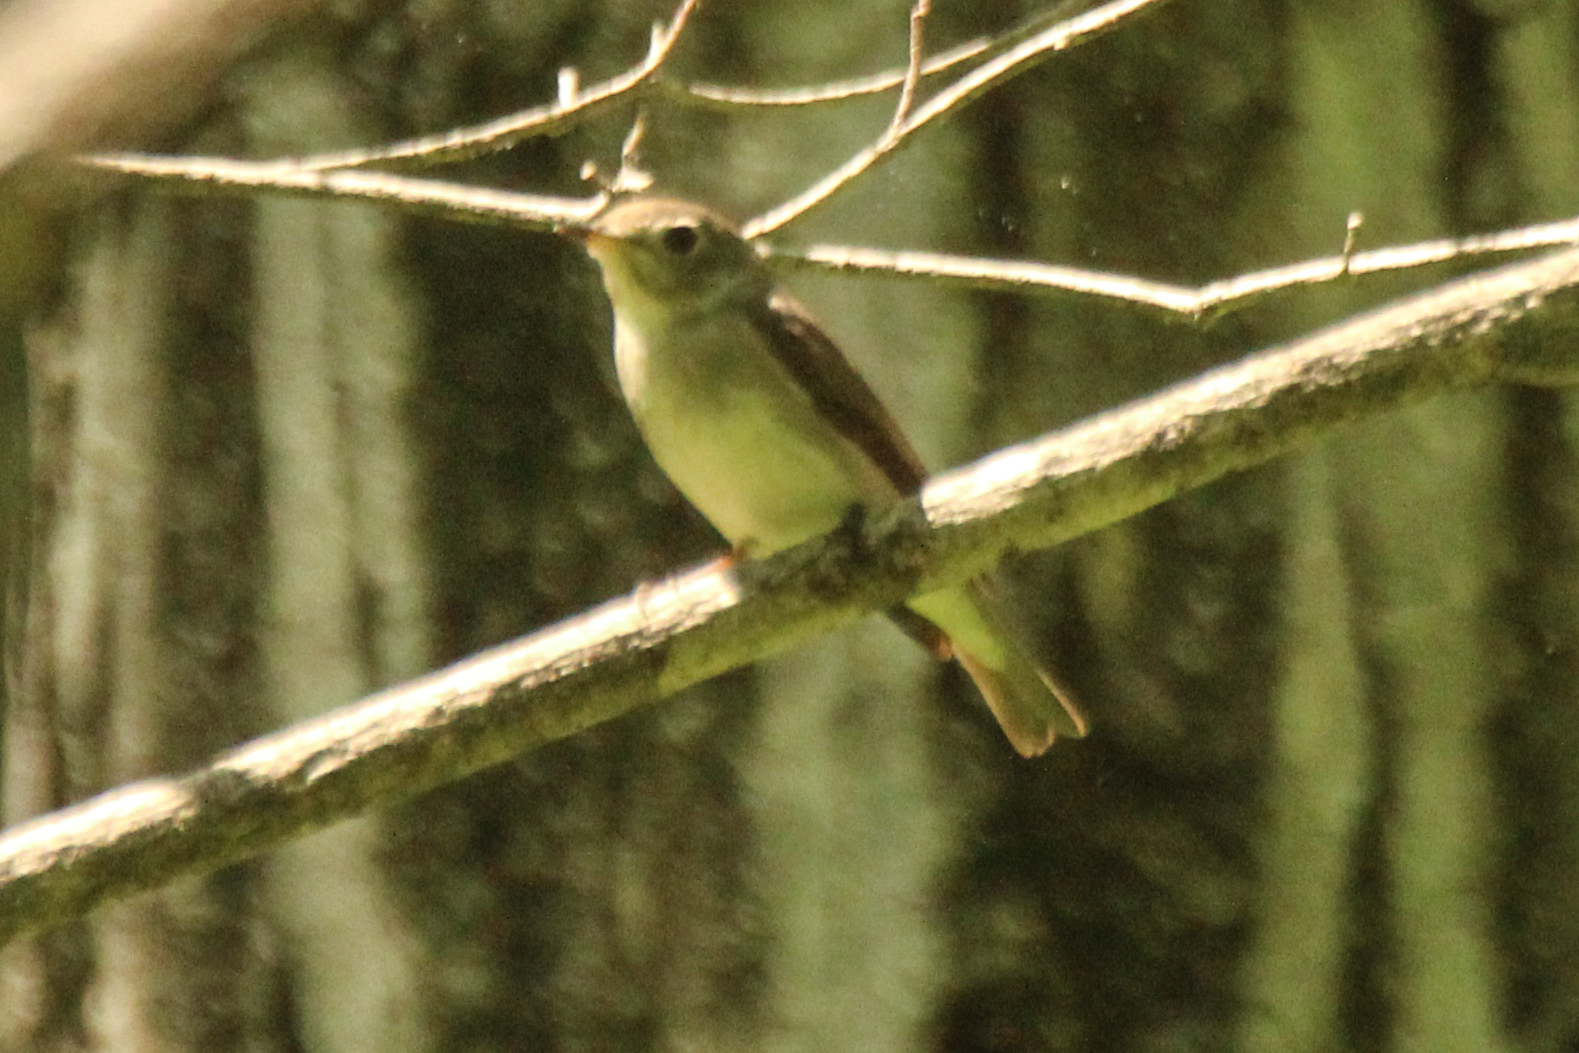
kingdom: Animalia
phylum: Chordata
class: Aves
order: Passeriformes
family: Muscicapidae
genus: Muscicapa
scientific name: Muscicapa latirostris
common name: Asian brown flycatcher
